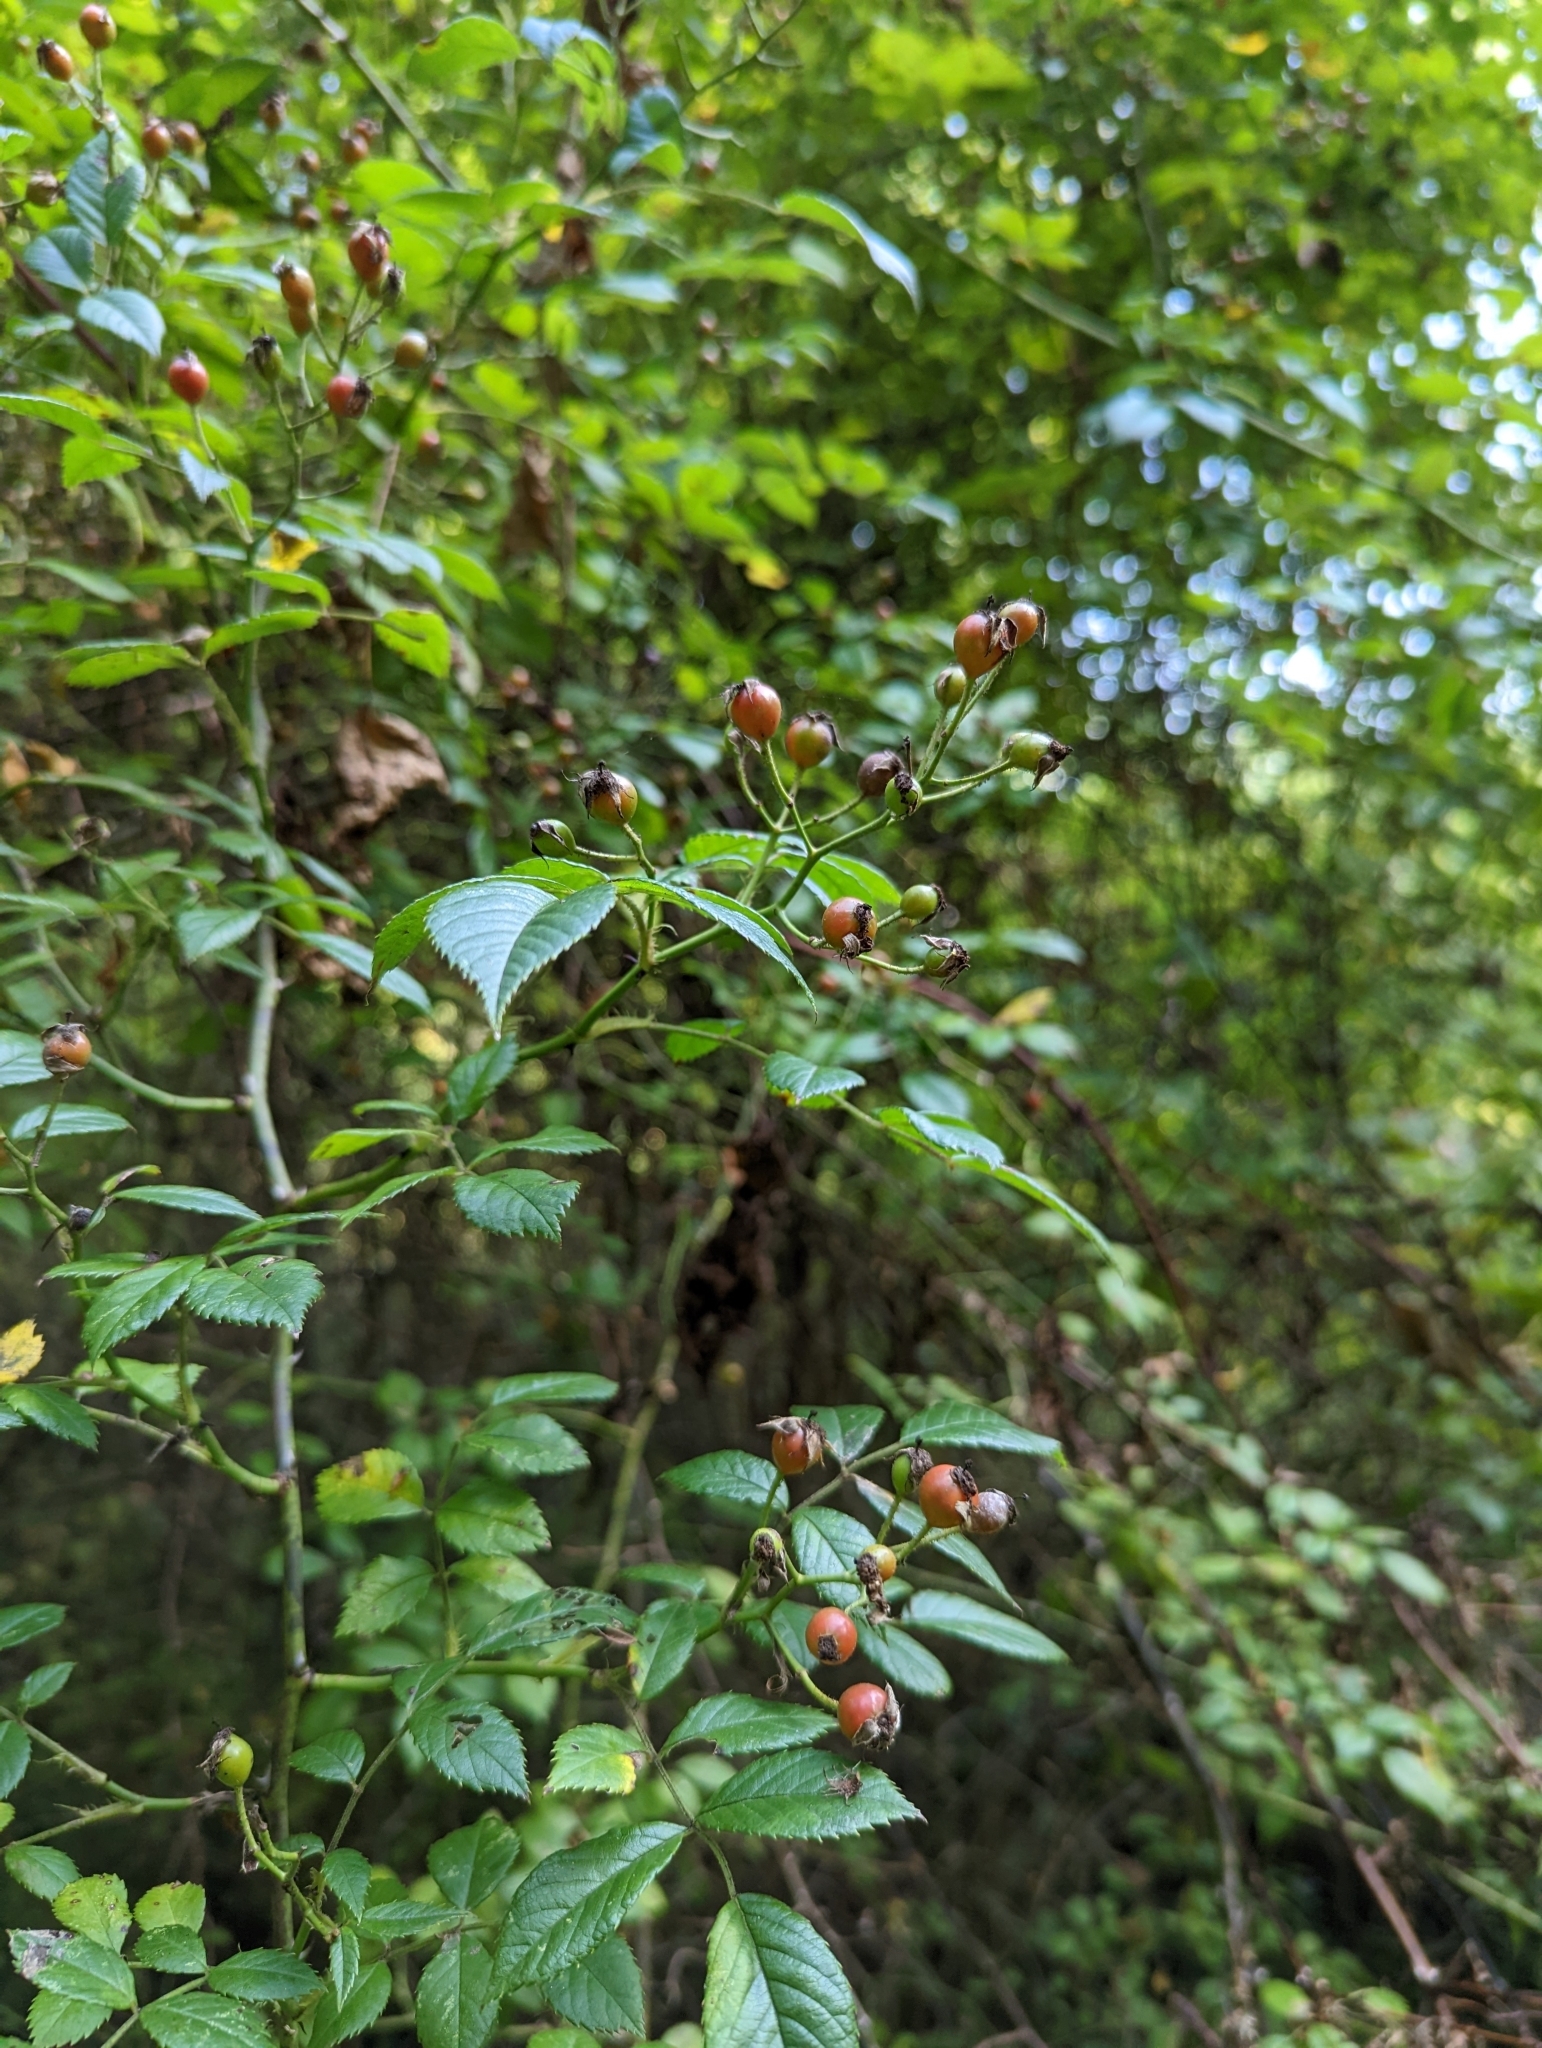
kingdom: Plantae
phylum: Tracheophyta
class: Magnoliopsida
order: Rosales
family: Rosaceae
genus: Rosa
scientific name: Rosa multiflora
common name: Multiflora rose
